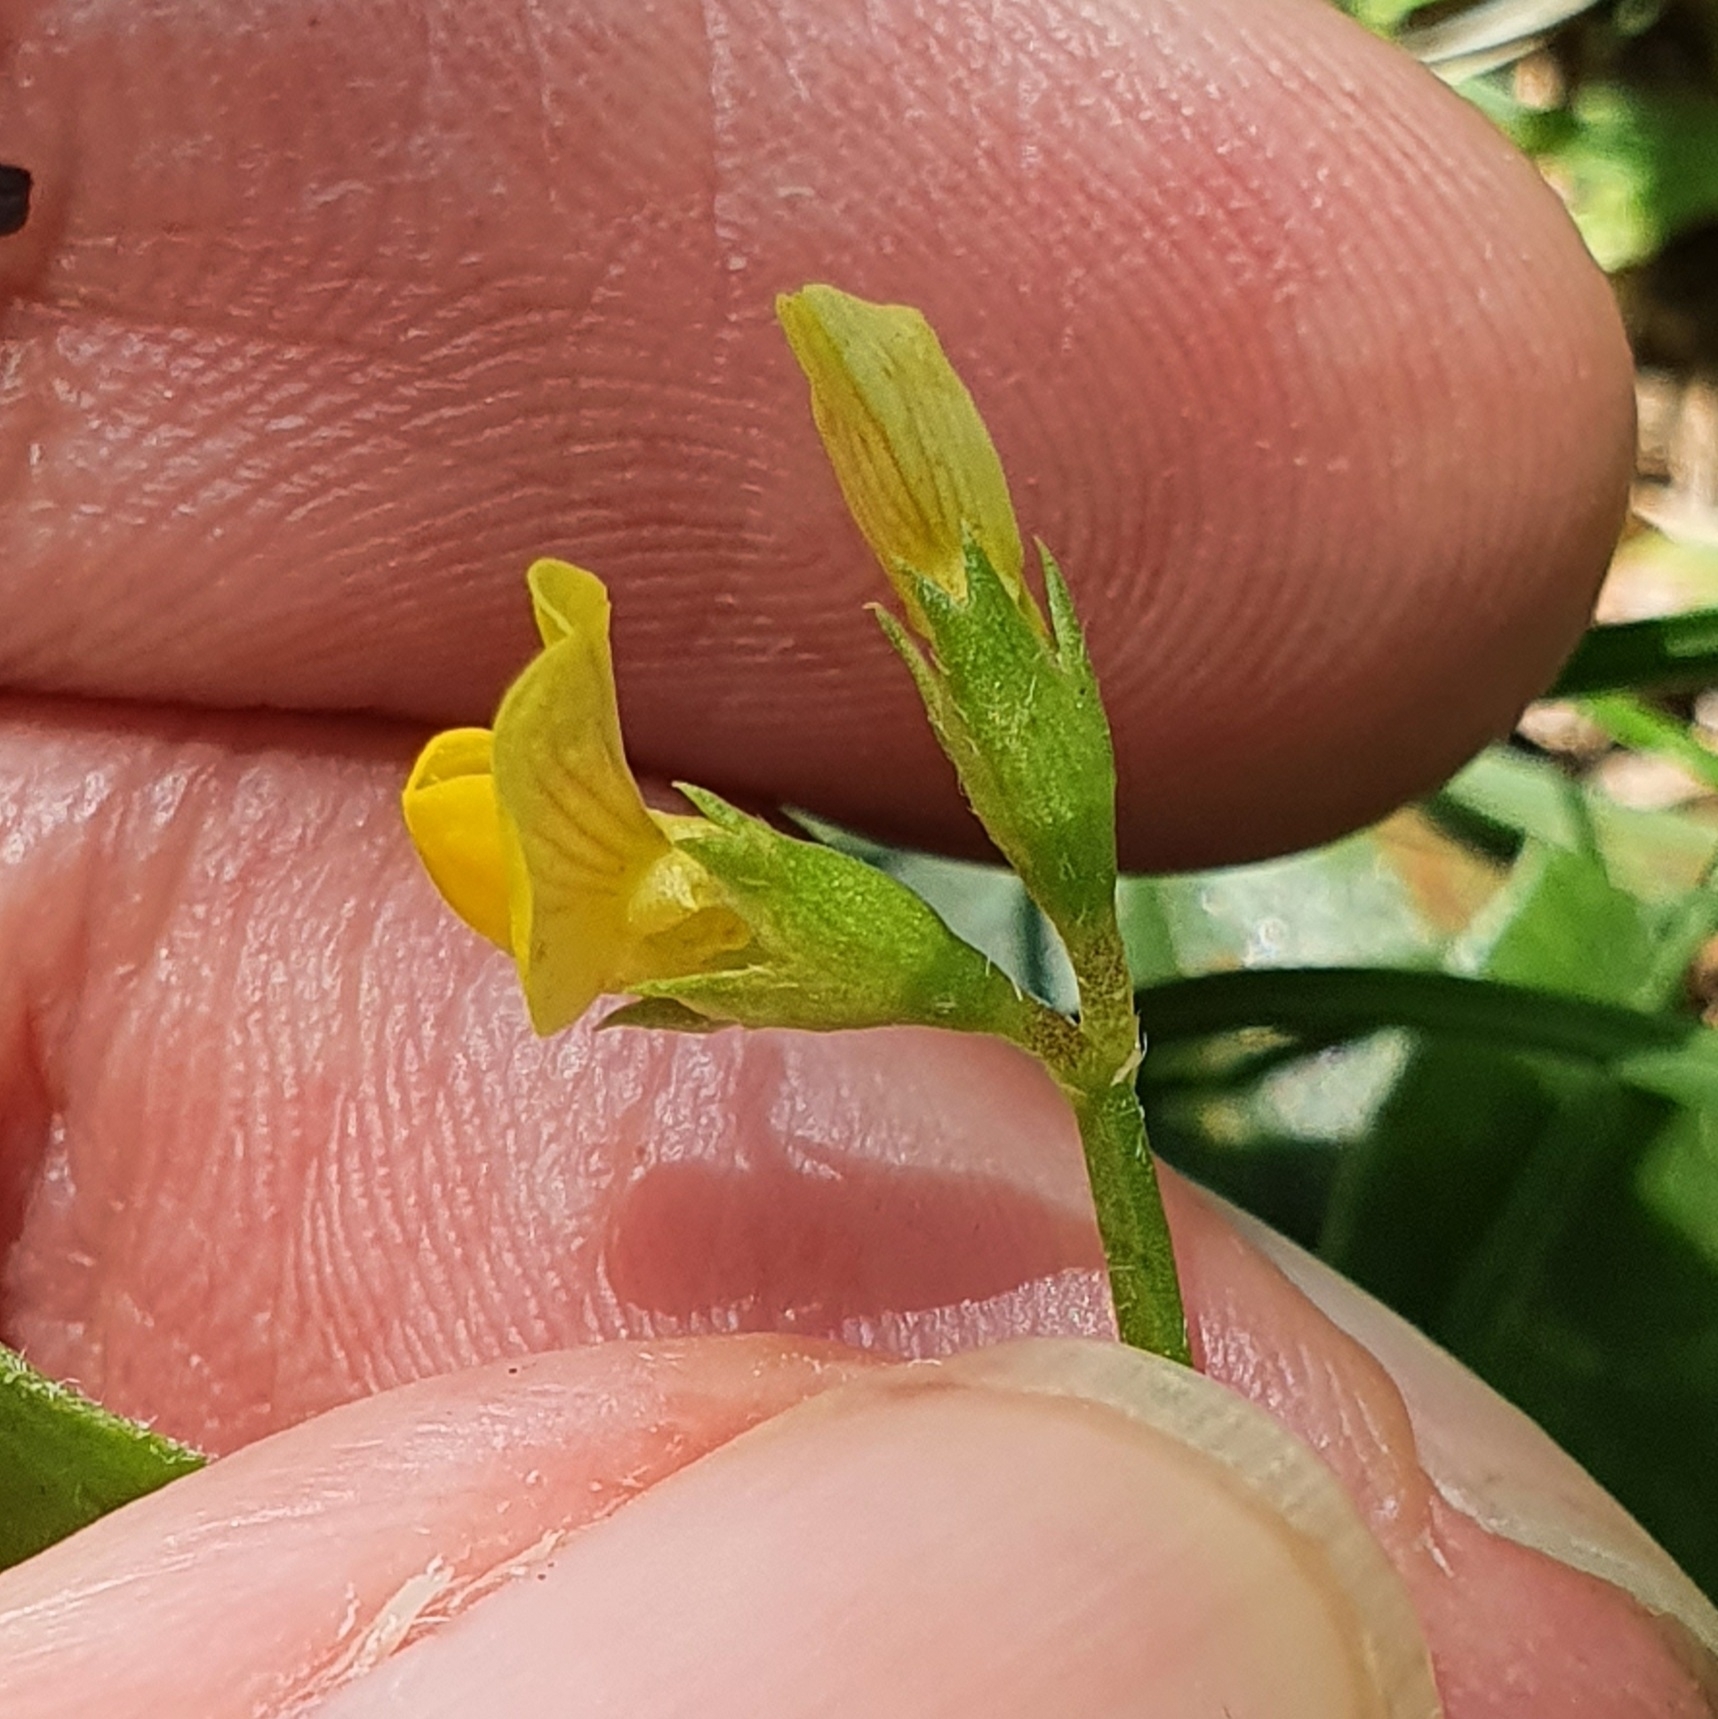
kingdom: Plantae
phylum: Tracheophyta
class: Magnoliopsida
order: Fabales
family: Fabaceae
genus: Scorpiurus
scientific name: Scorpiurus muricatus
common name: Caterpillar-plant
